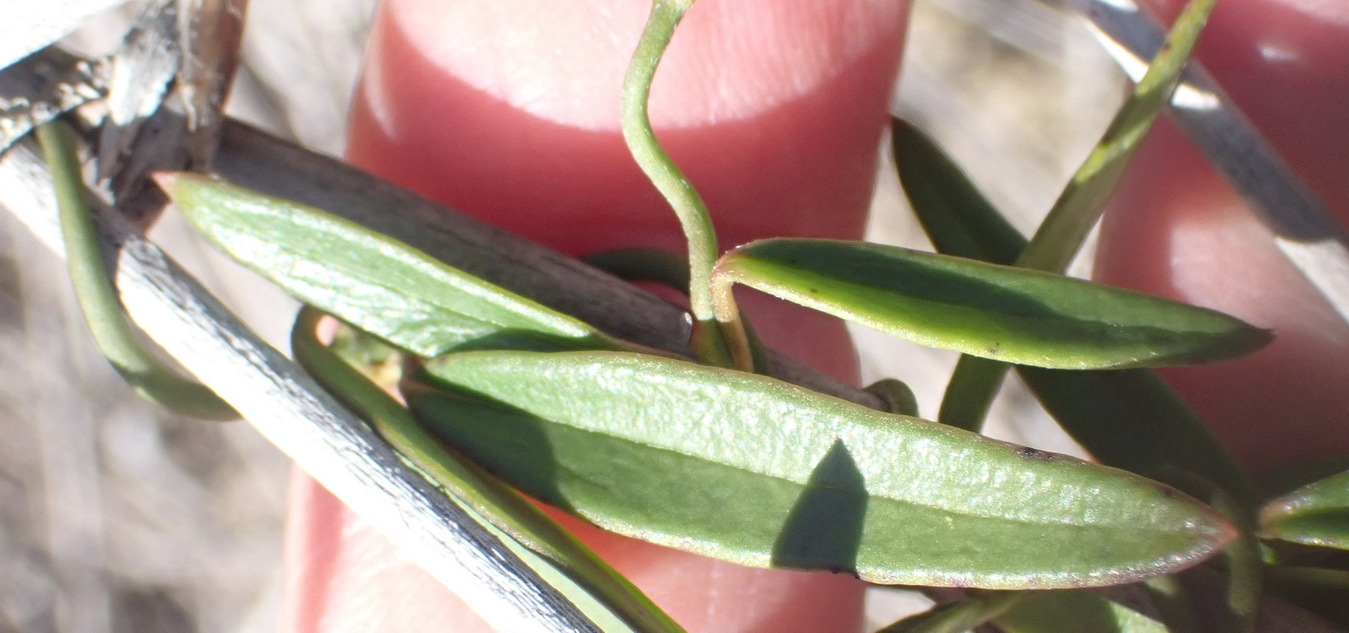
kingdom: Plantae
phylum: Tracheophyta
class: Magnoliopsida
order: Gentianales
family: Apocynaceae
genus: Astephanus
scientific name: Astephanus triflorus
